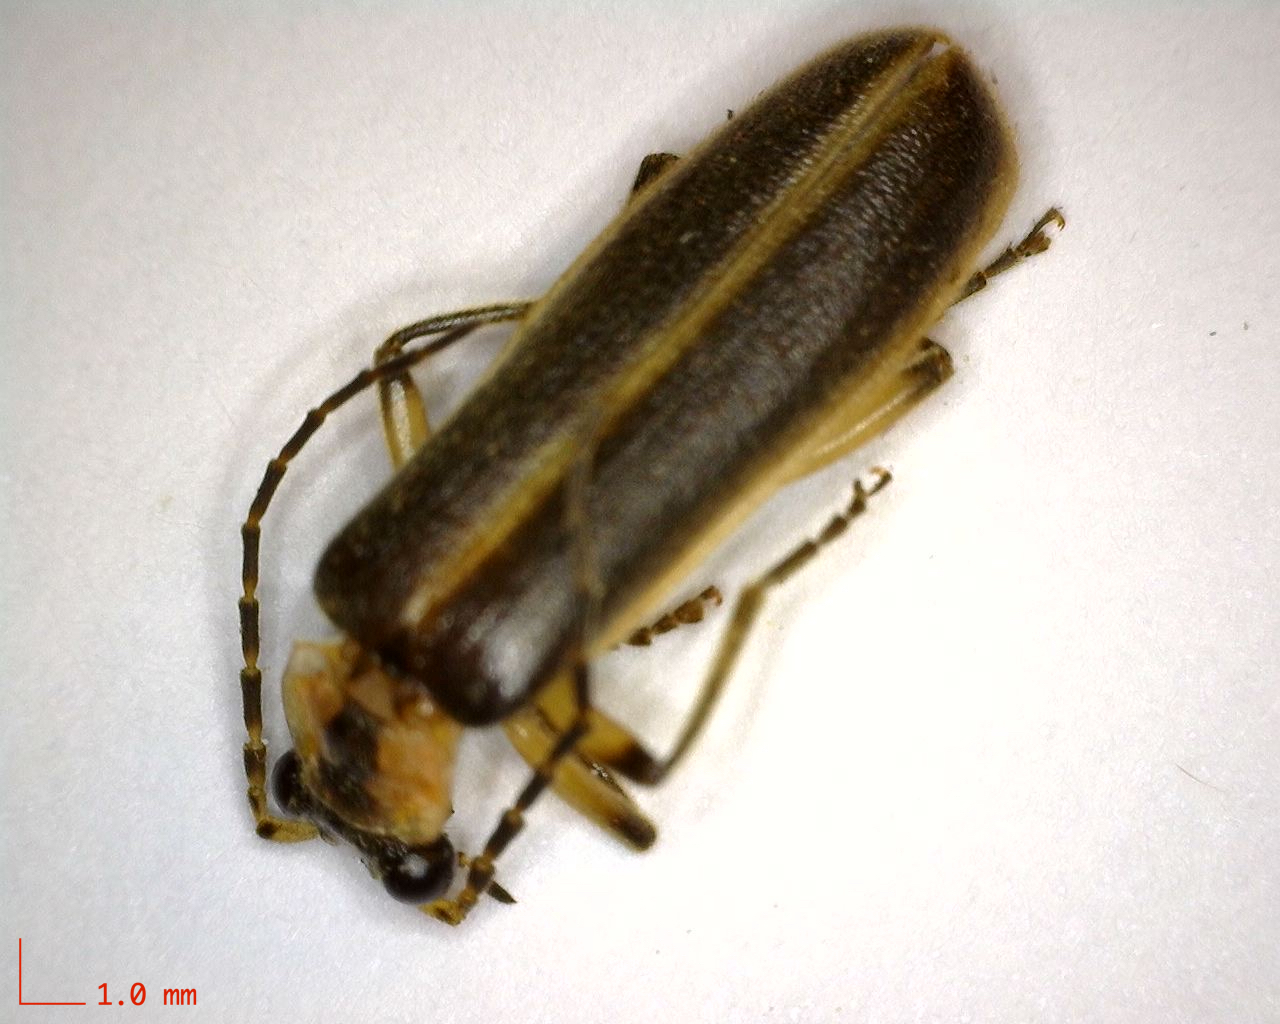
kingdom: Animalia
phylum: Arthropoda
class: Insecta
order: Coleoptera
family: Cantharidae
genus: Podabrus
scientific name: Podabrus basilaris
